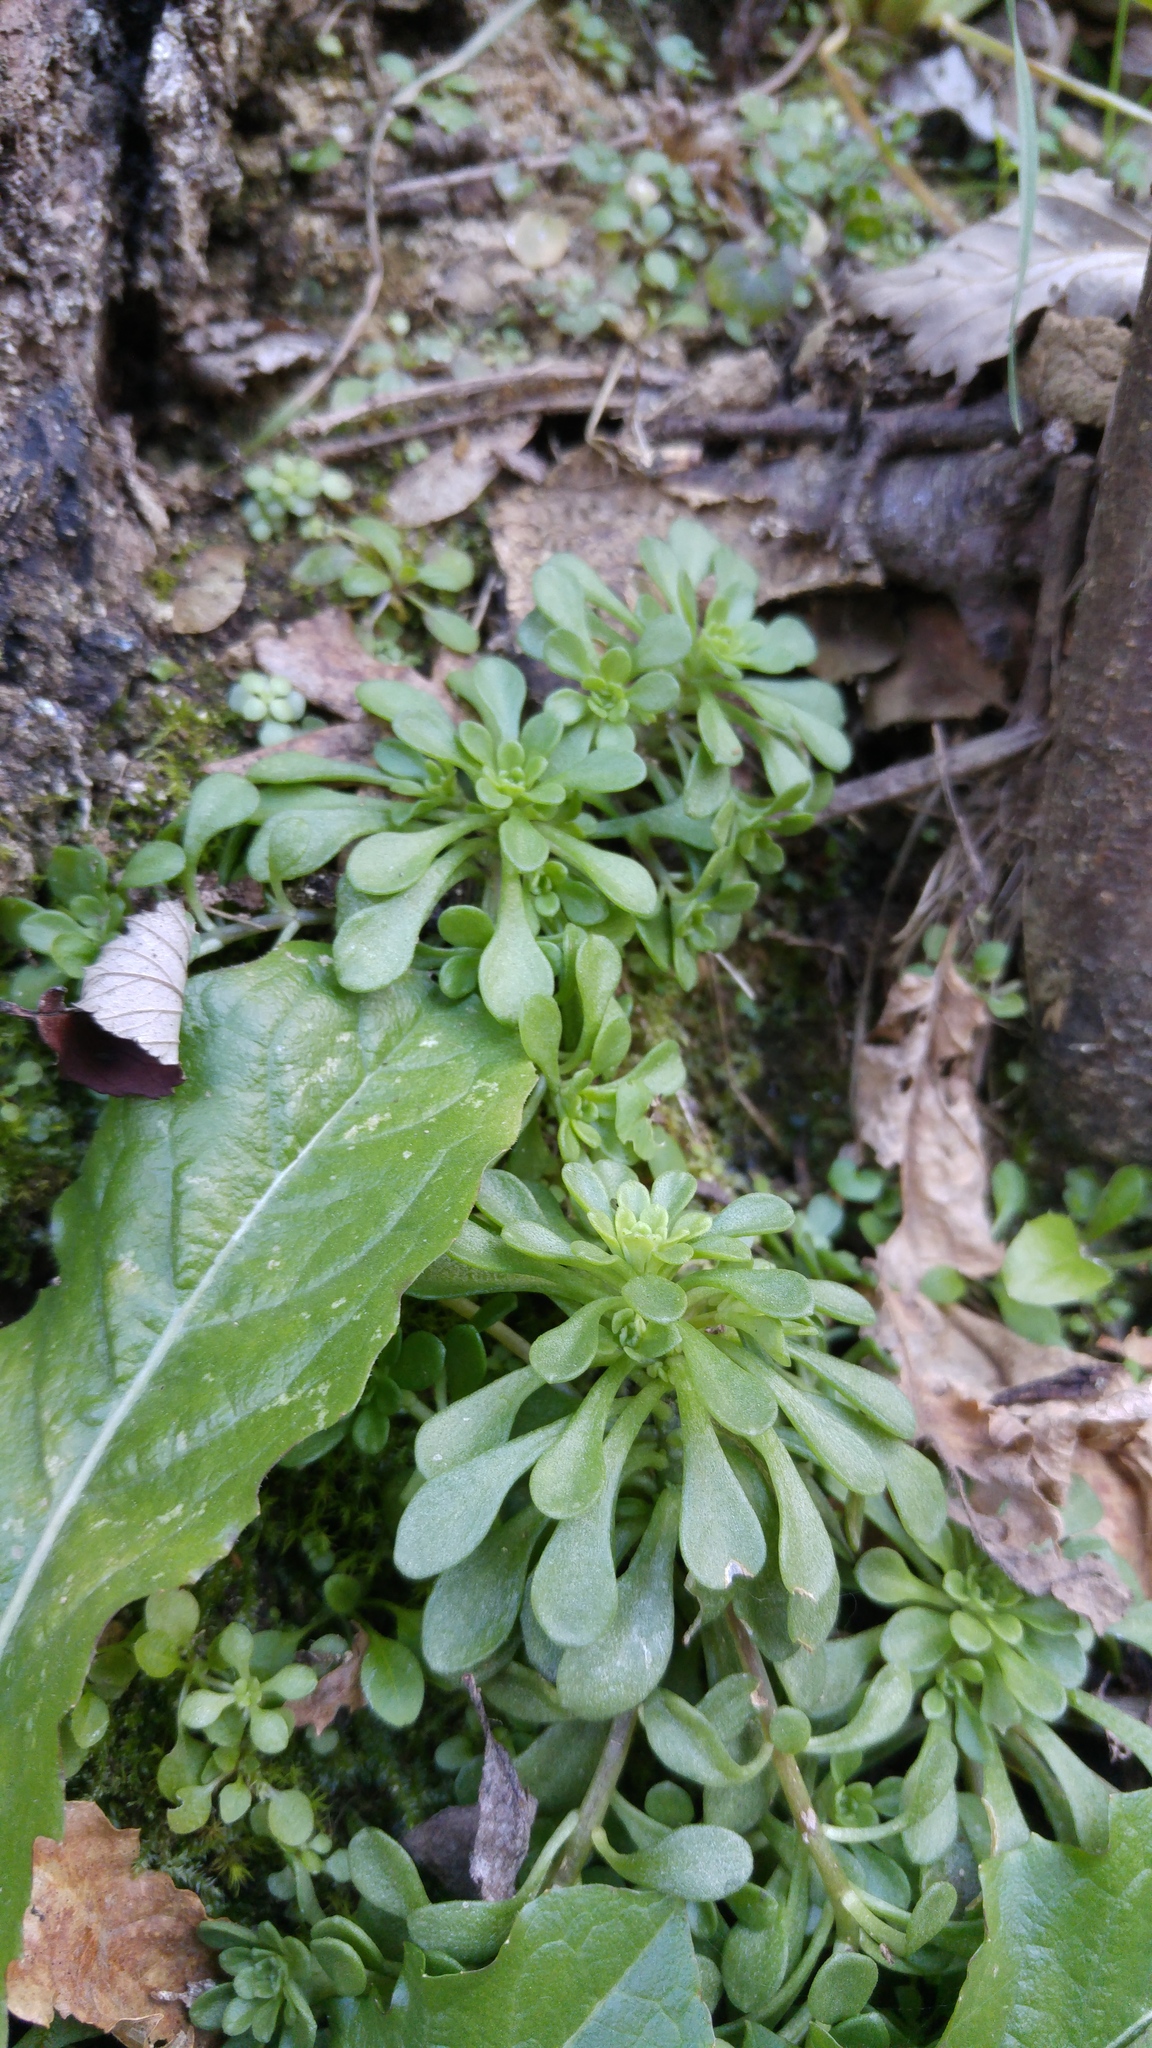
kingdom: Plantae
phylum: Tracheophyta
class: Magnoliopsida
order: Saxifragales
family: Crassulaceae
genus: Sedum
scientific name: Sedum cepaea
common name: Pink stonecrop
